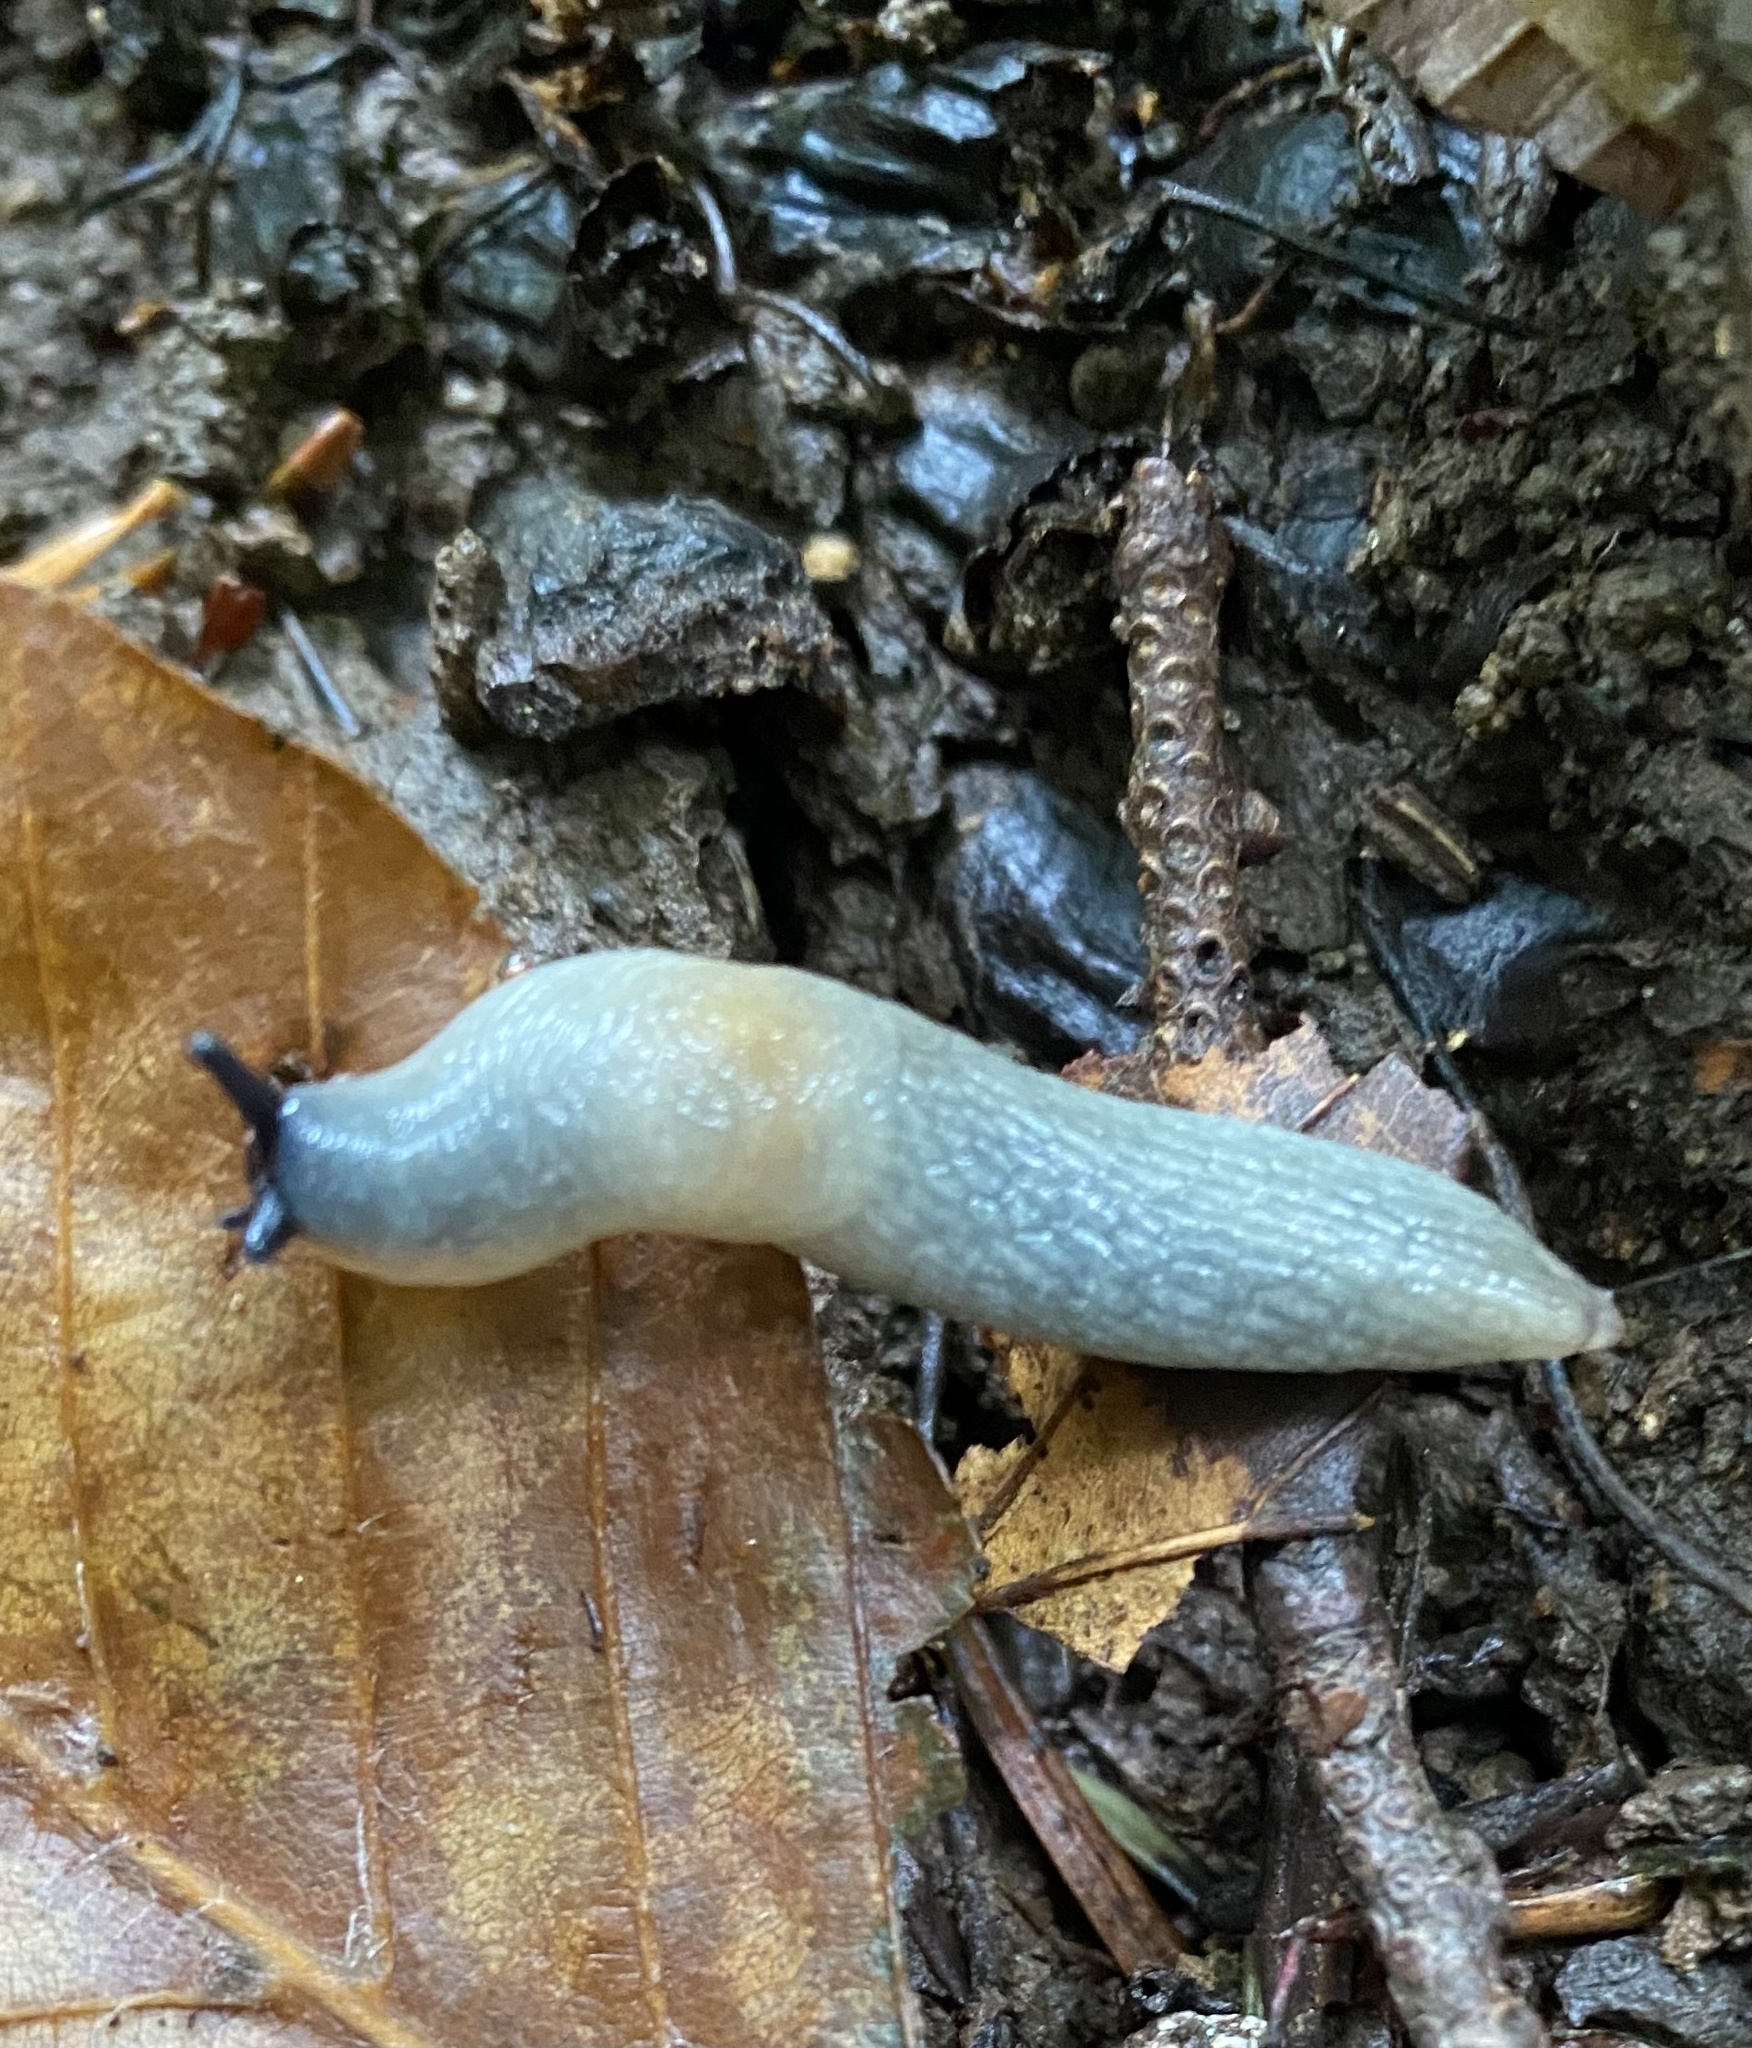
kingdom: Animalia
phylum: Mollusca
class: Gastropoda
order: Stylommatophora
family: Agriolimacidae
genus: Krynickillus
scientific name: Krynickillus melanocephalus
